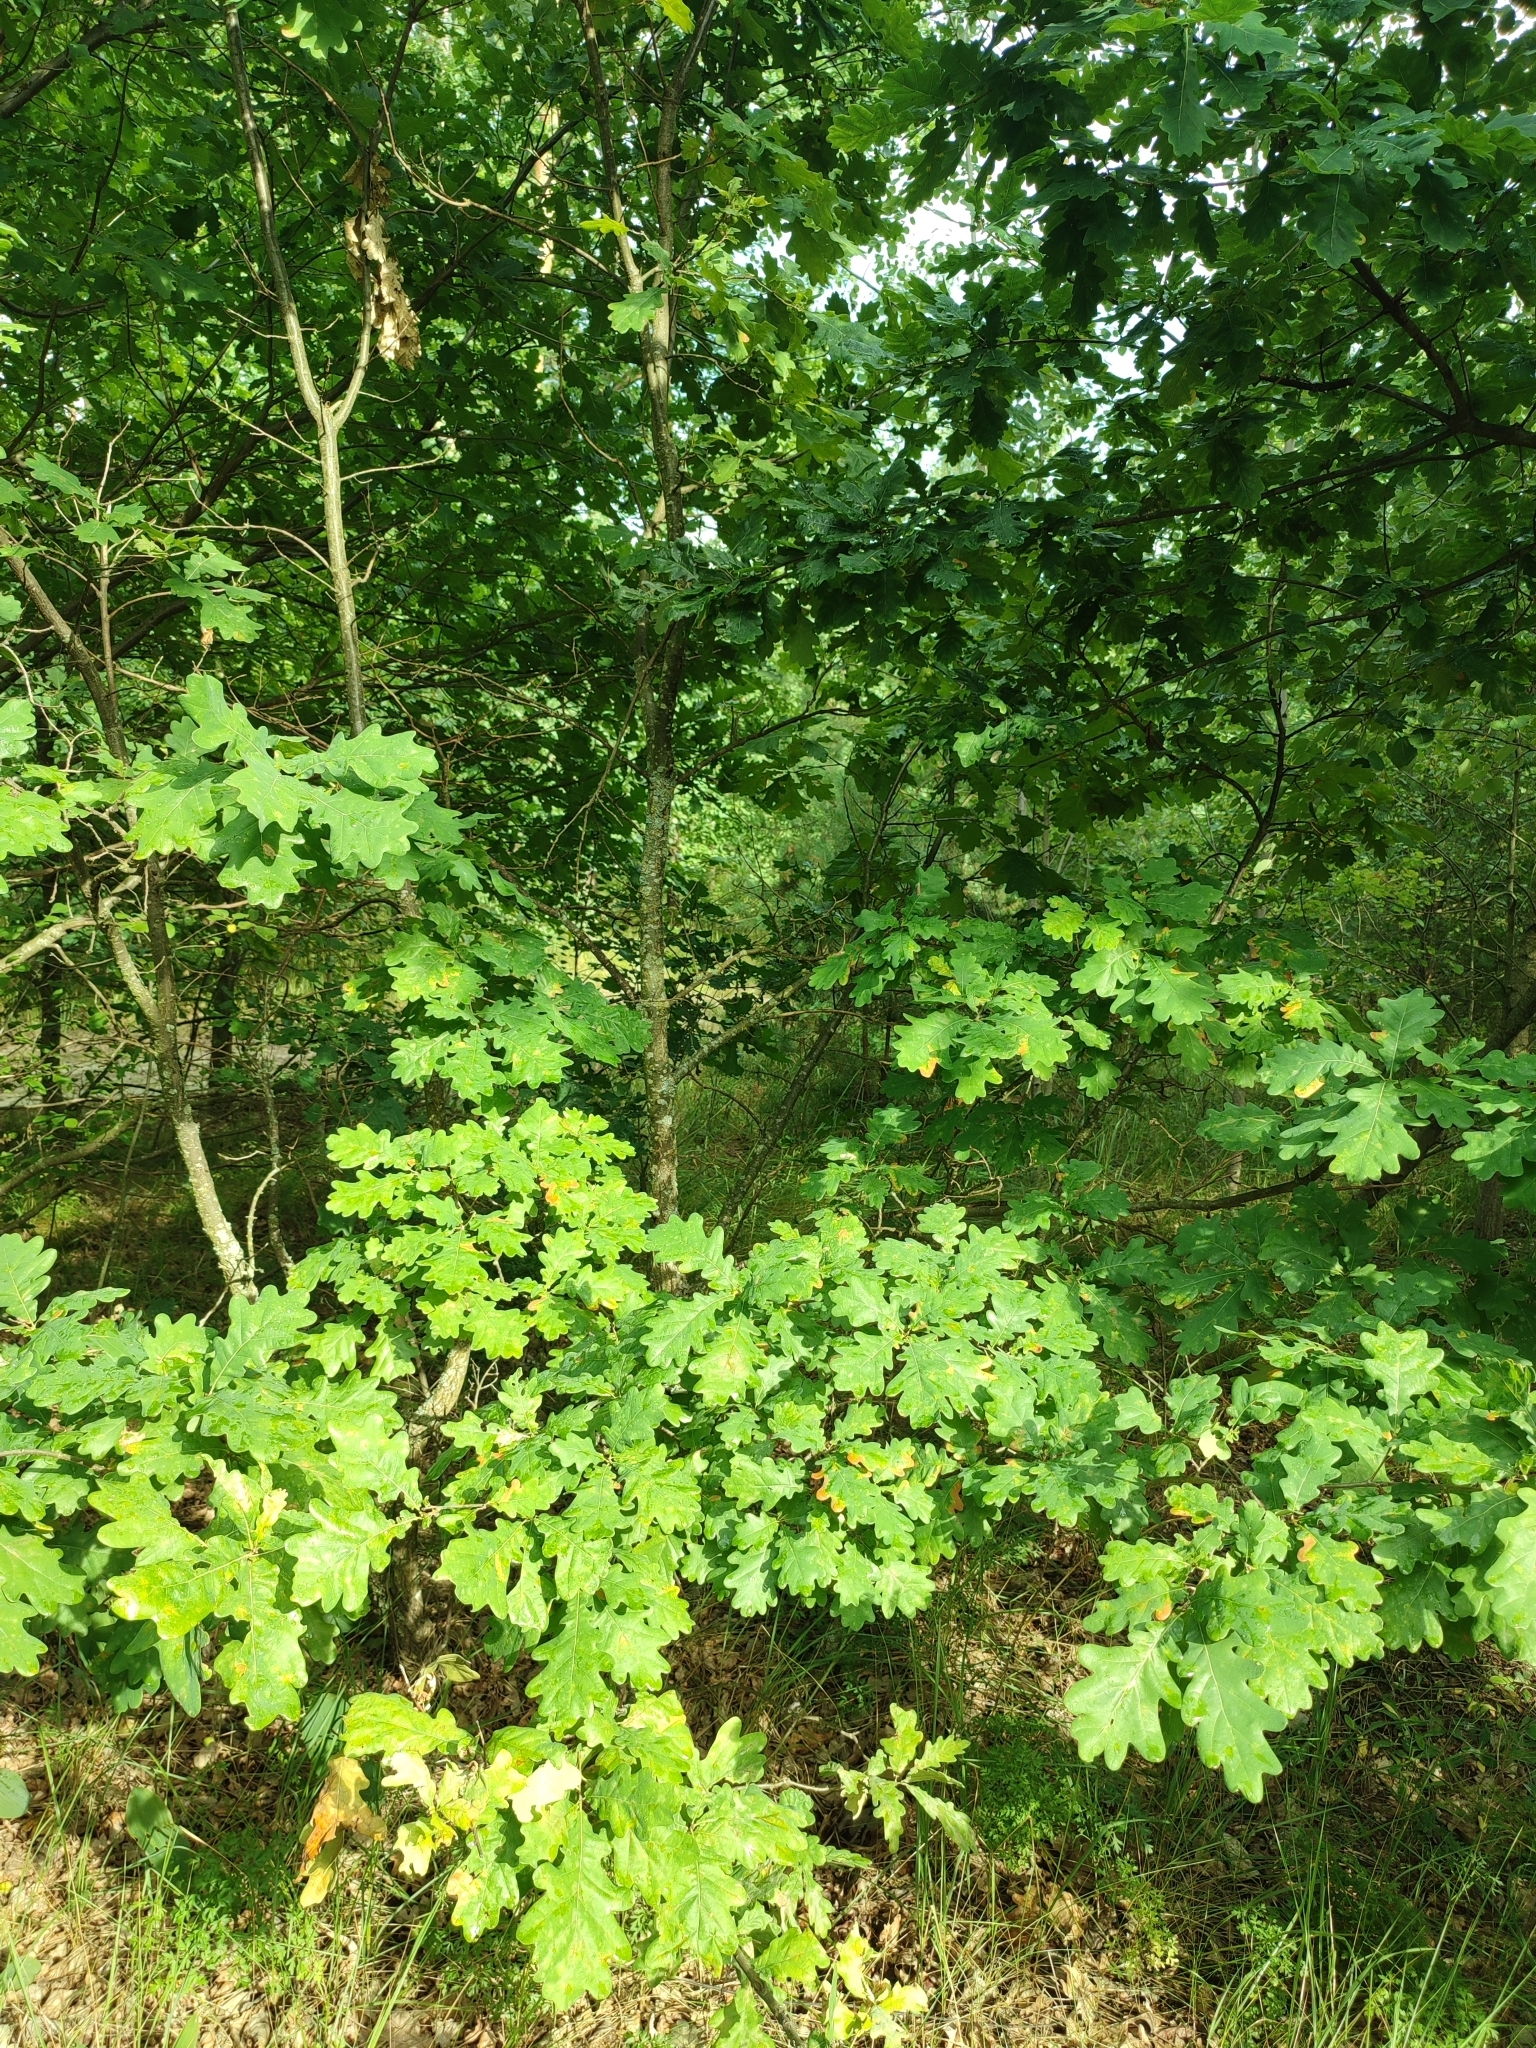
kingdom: Plantae
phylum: Tracheophyta
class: Magnoliopsida
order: Fagales
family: Fagaceae
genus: Quercus
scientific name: Quercus robur
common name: Pedunculate oak
